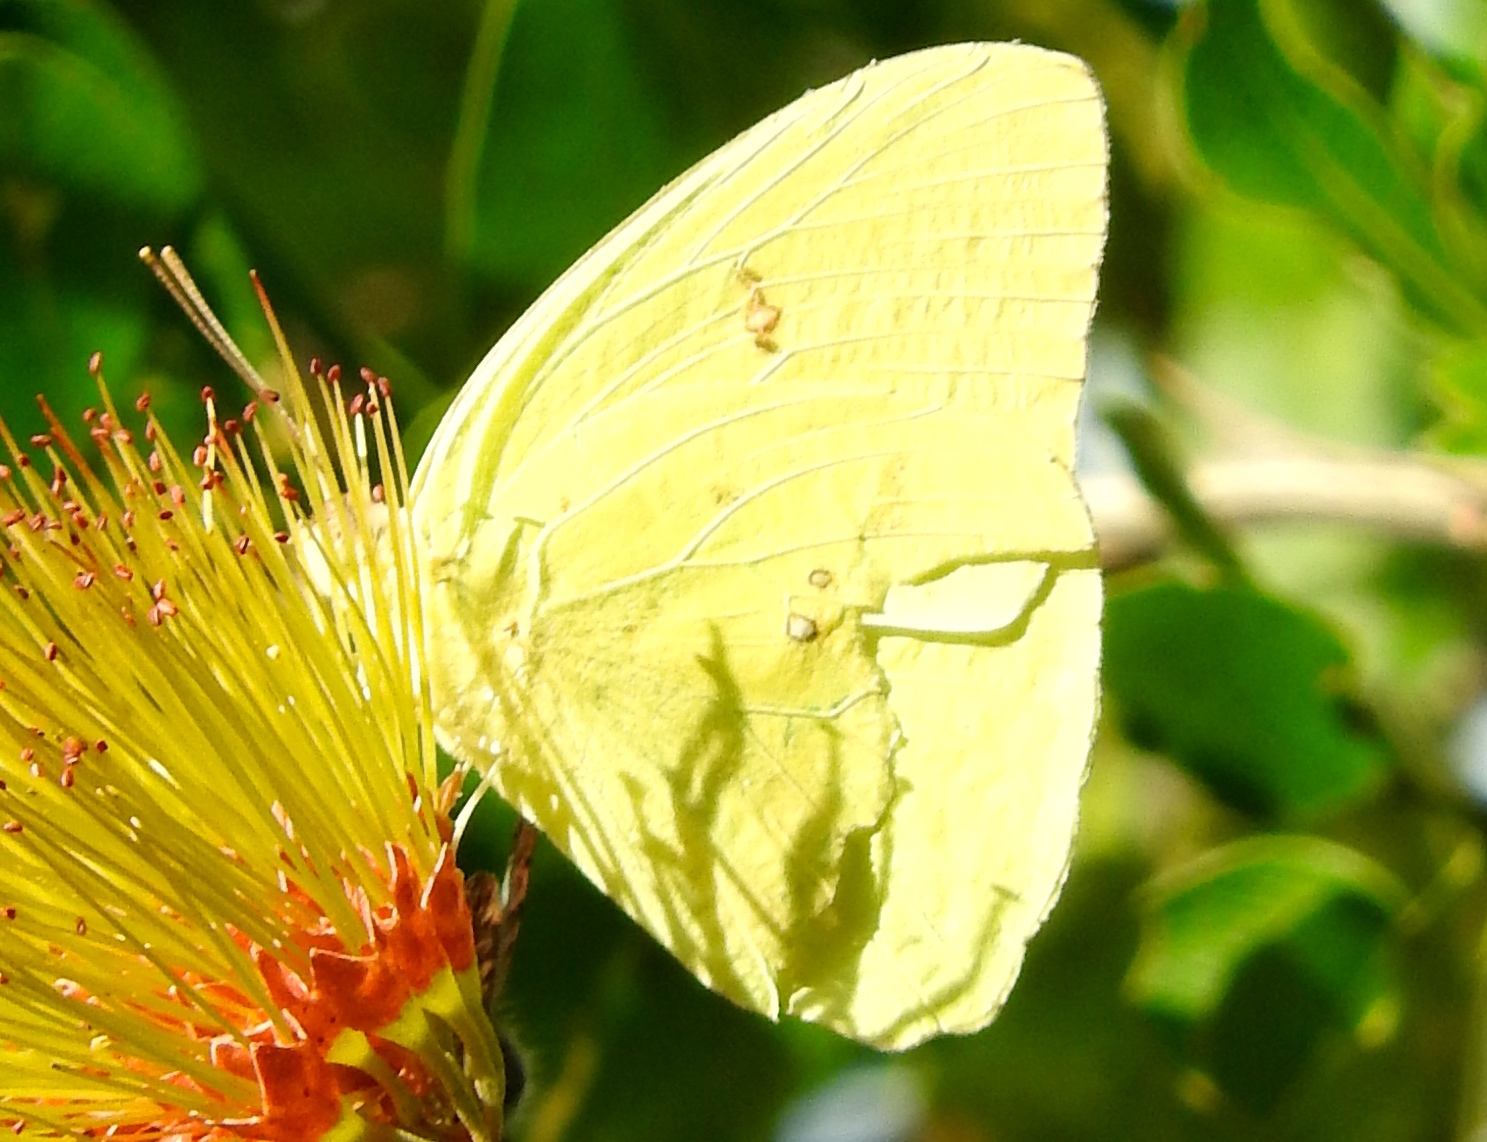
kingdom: Animalia
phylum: Arthropoda
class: Insecta
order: Lepidoptera
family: Pieridae
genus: Phoebis
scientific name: Phoebis marcellina
